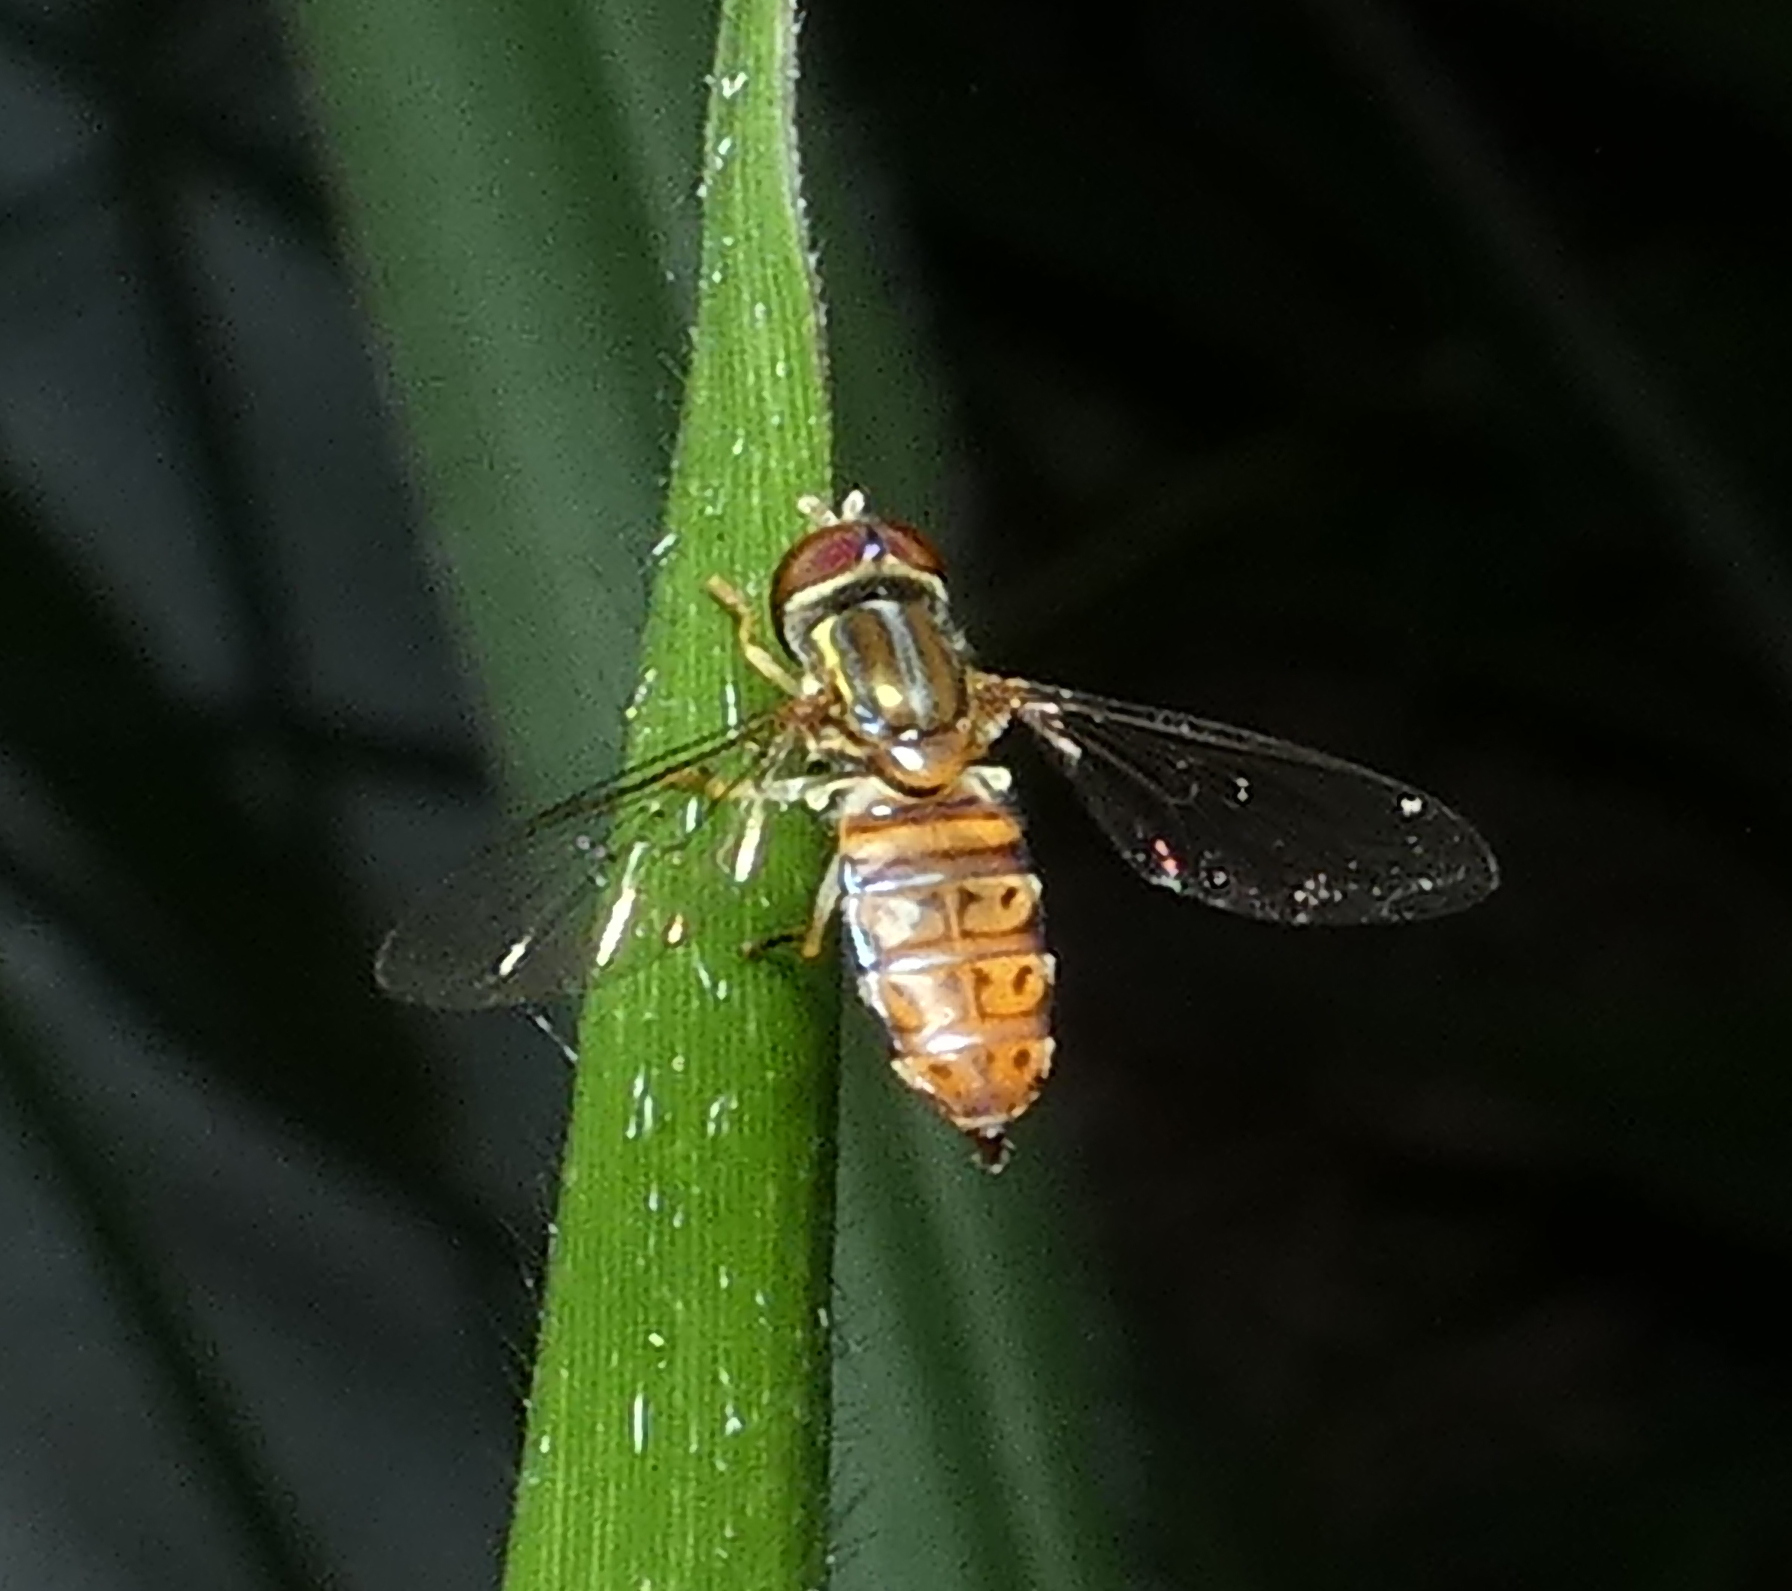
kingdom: Animalia
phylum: Arthropoda
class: Insecta
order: Diptera
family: Syrphidae
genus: Toxomerus
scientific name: Toxomerus pulchellus
